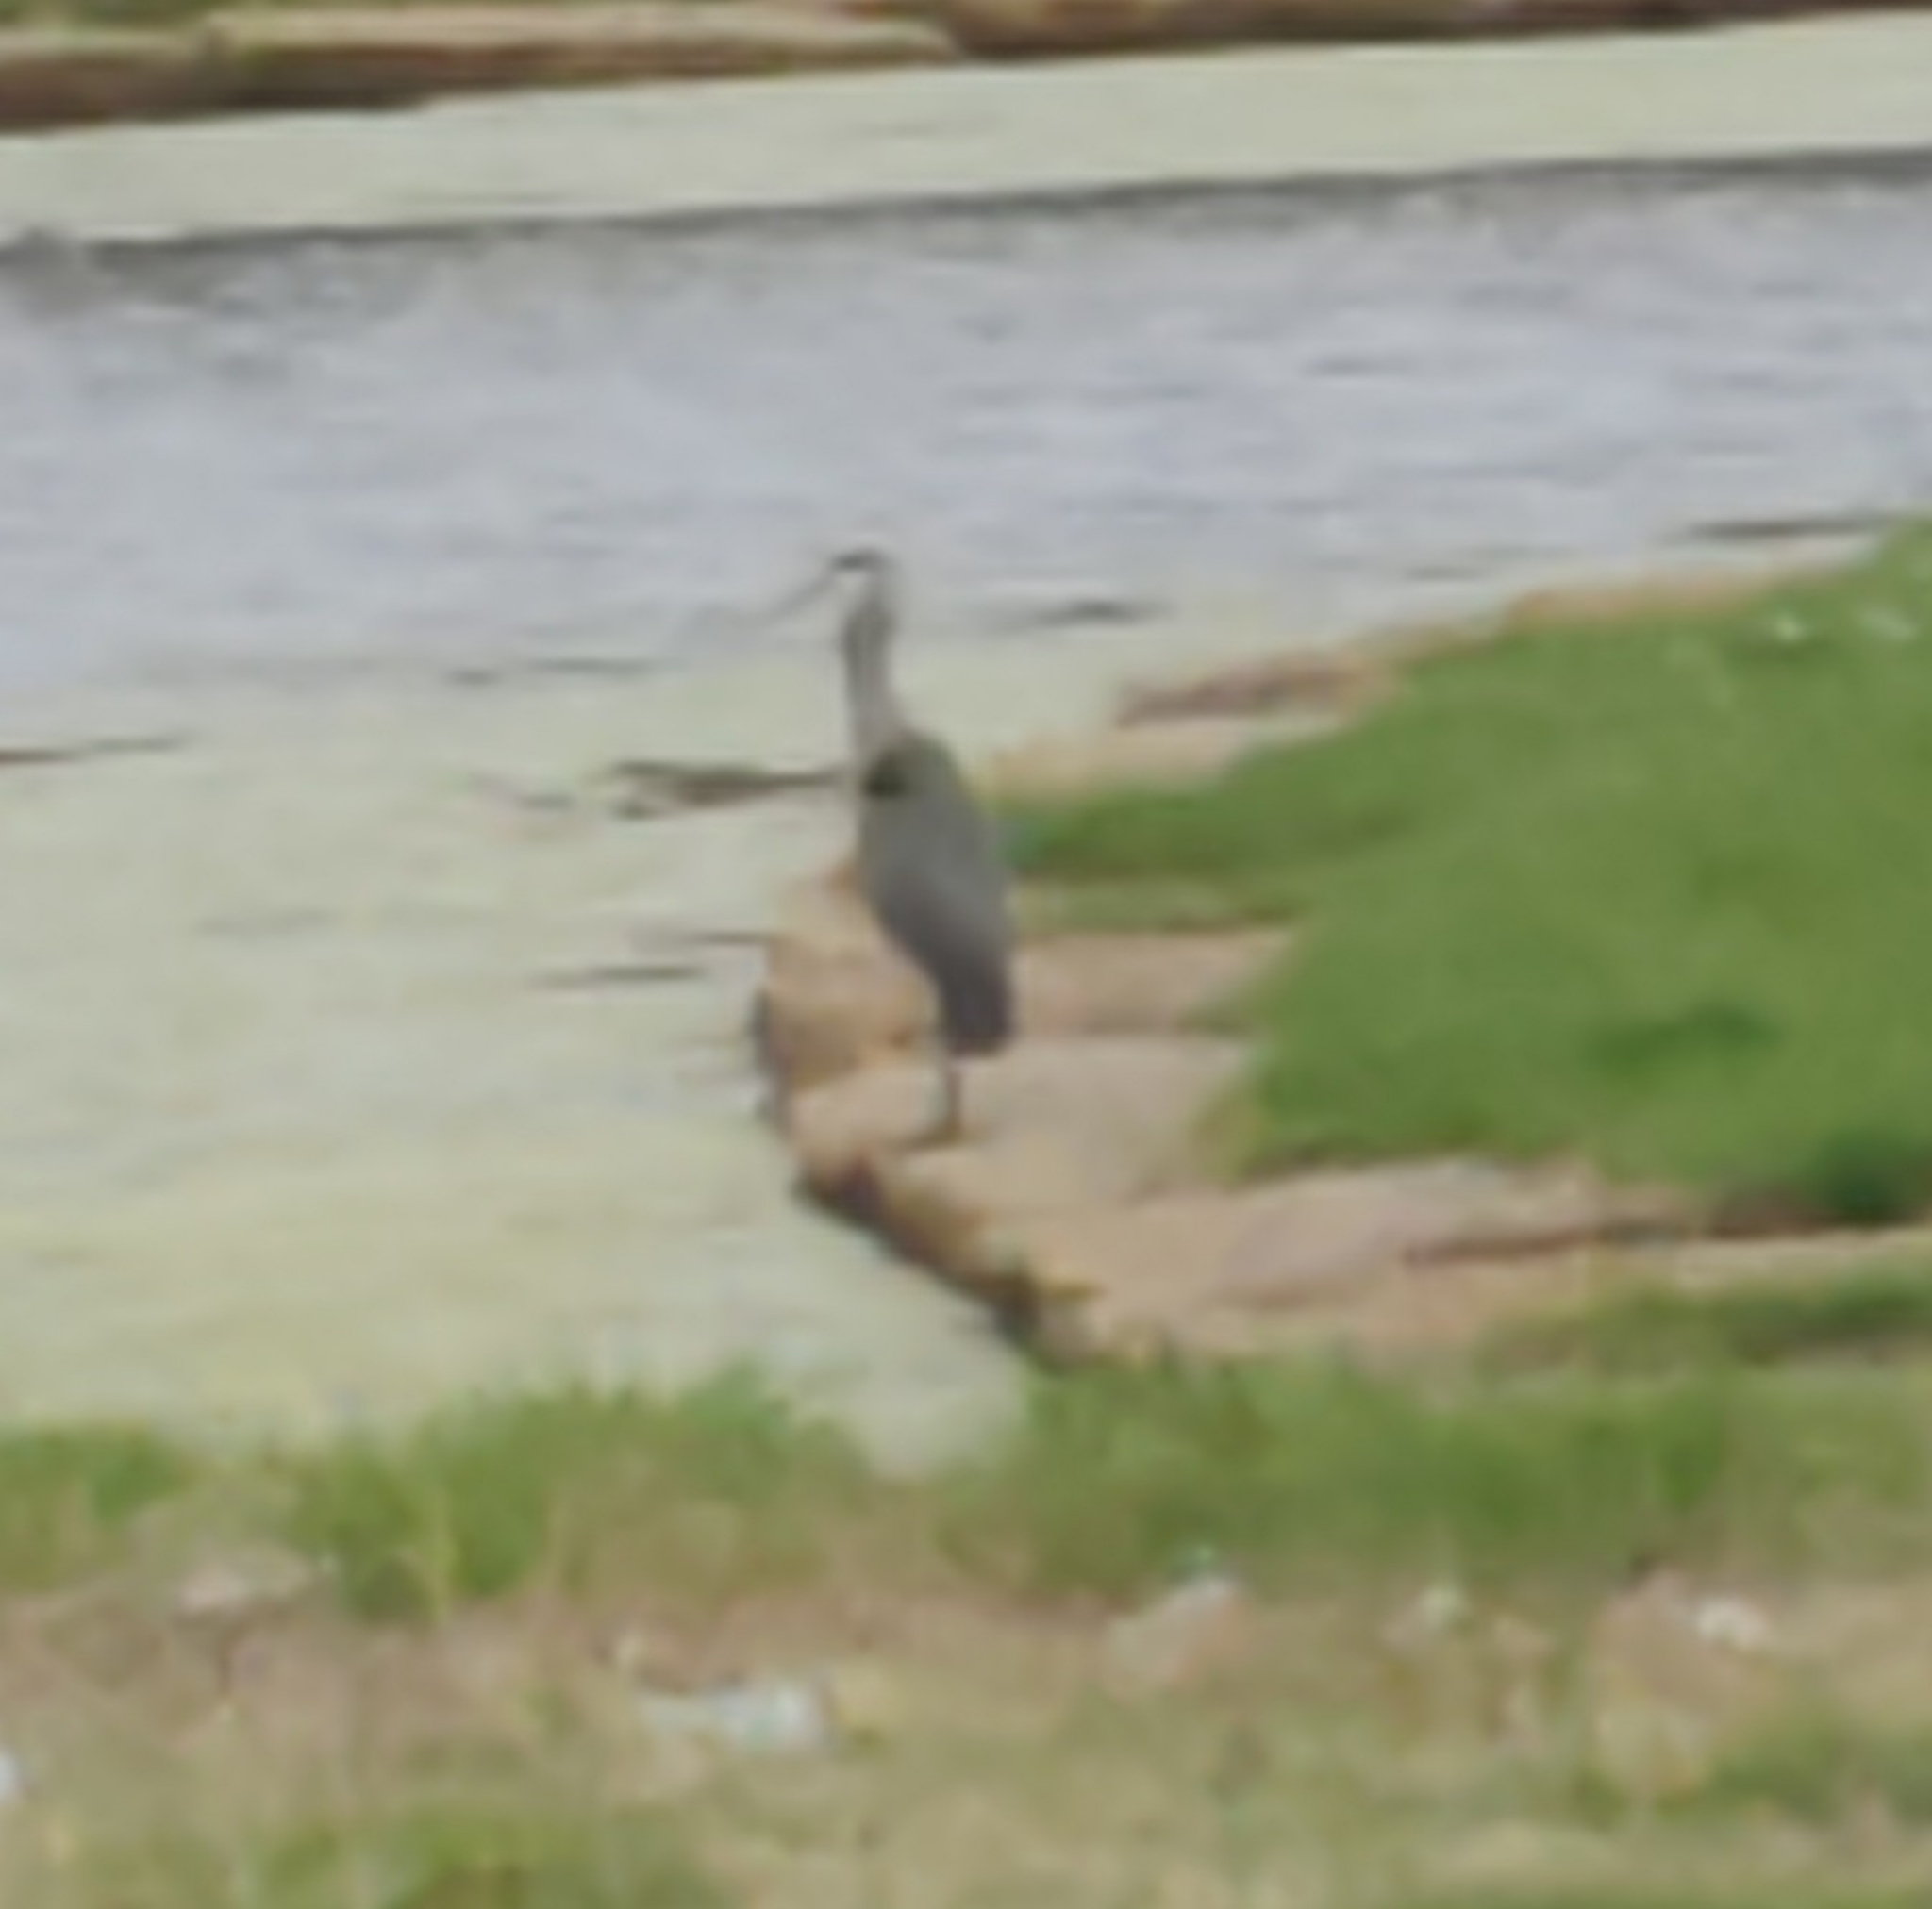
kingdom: Animalia
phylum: Chordata
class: Aves
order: Pelecaniformes
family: Ardeidae
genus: Ardea
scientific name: Ardea herodias
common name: Great blue heron
